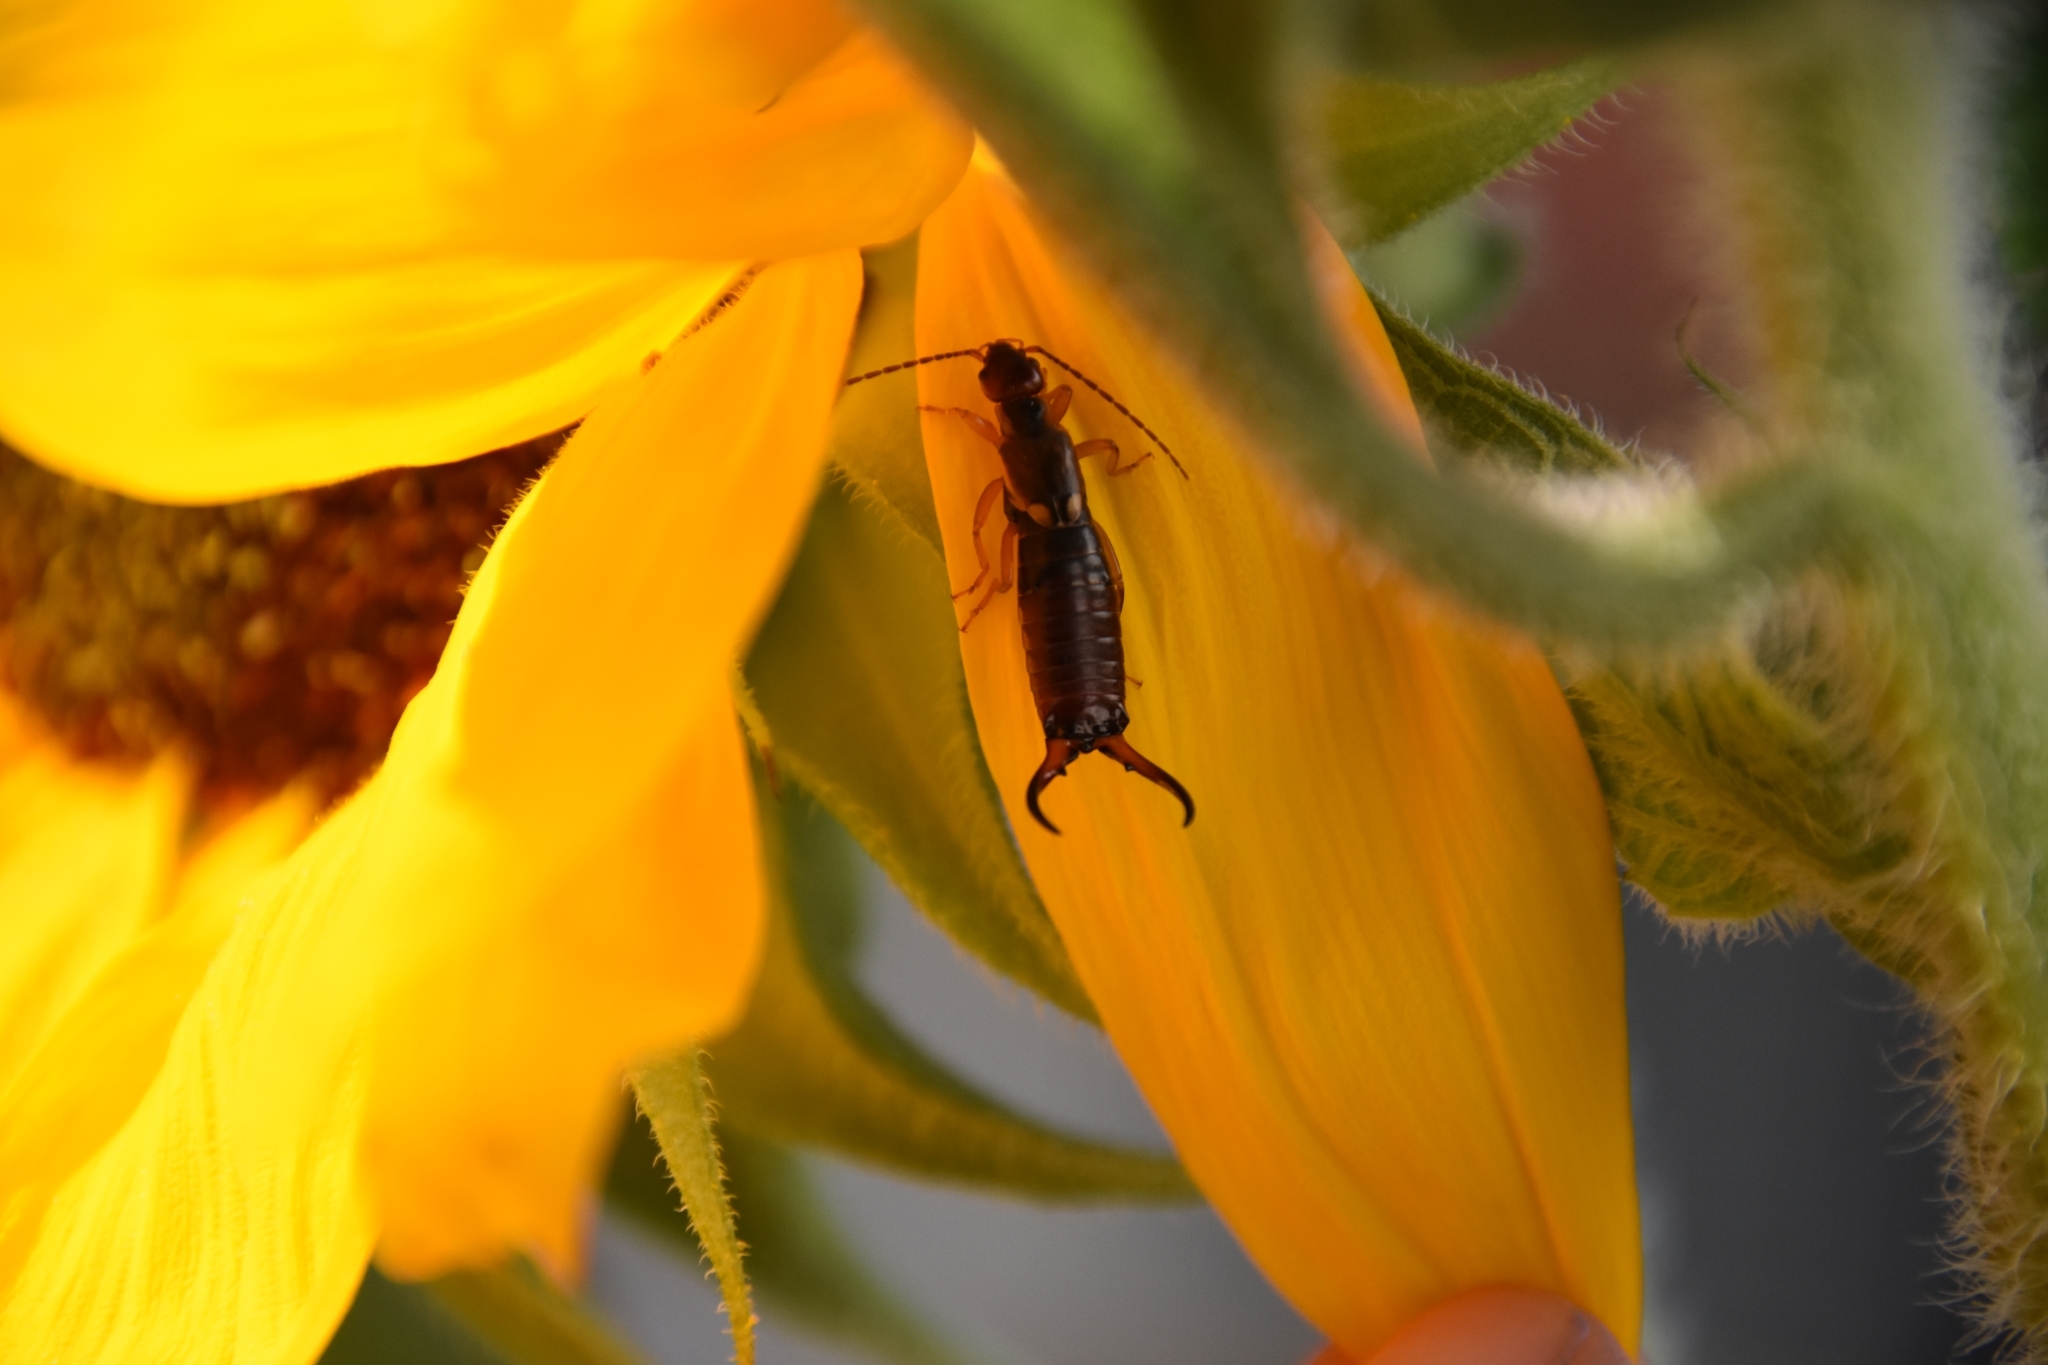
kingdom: Animalia
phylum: Arthropoda
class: Insecta
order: Dermaptera
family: Forficulidae
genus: Forficula
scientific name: Forficula
